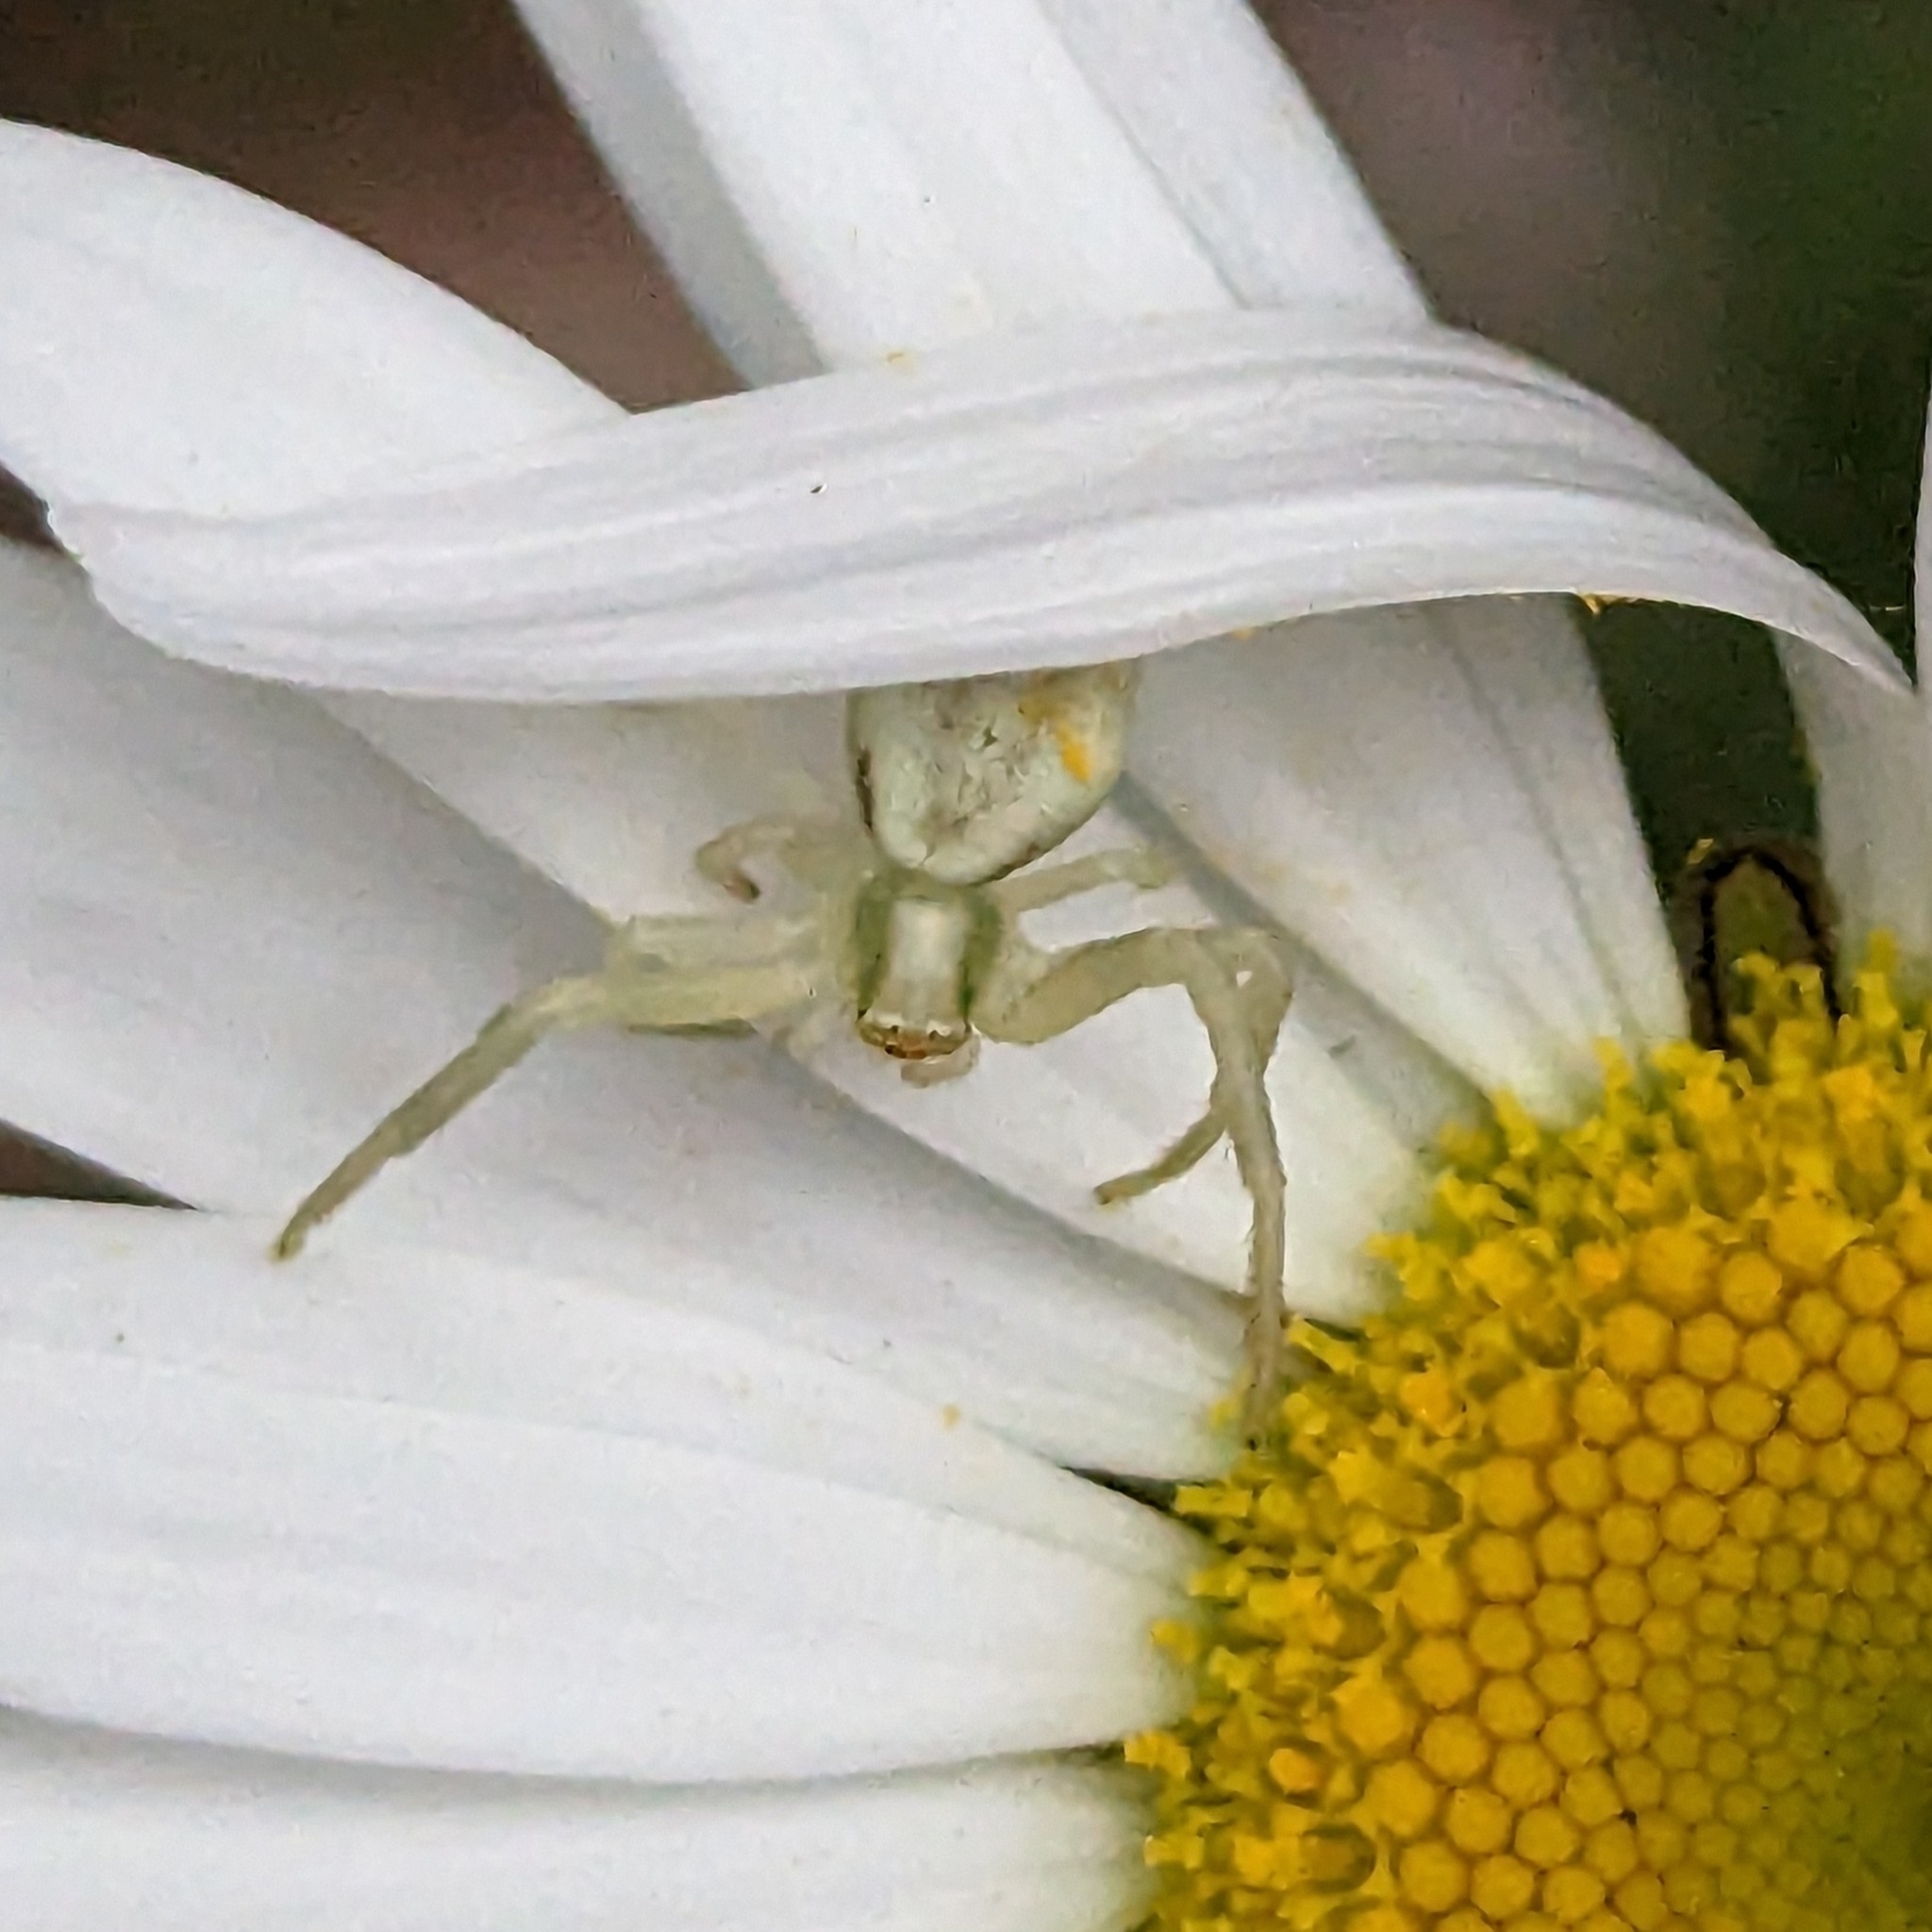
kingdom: Animalia
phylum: Arthropoda
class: Arachnida
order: Araneae
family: Thomisidae
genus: Misumena
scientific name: Misumena vatia
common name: Goldenrod crab spider
